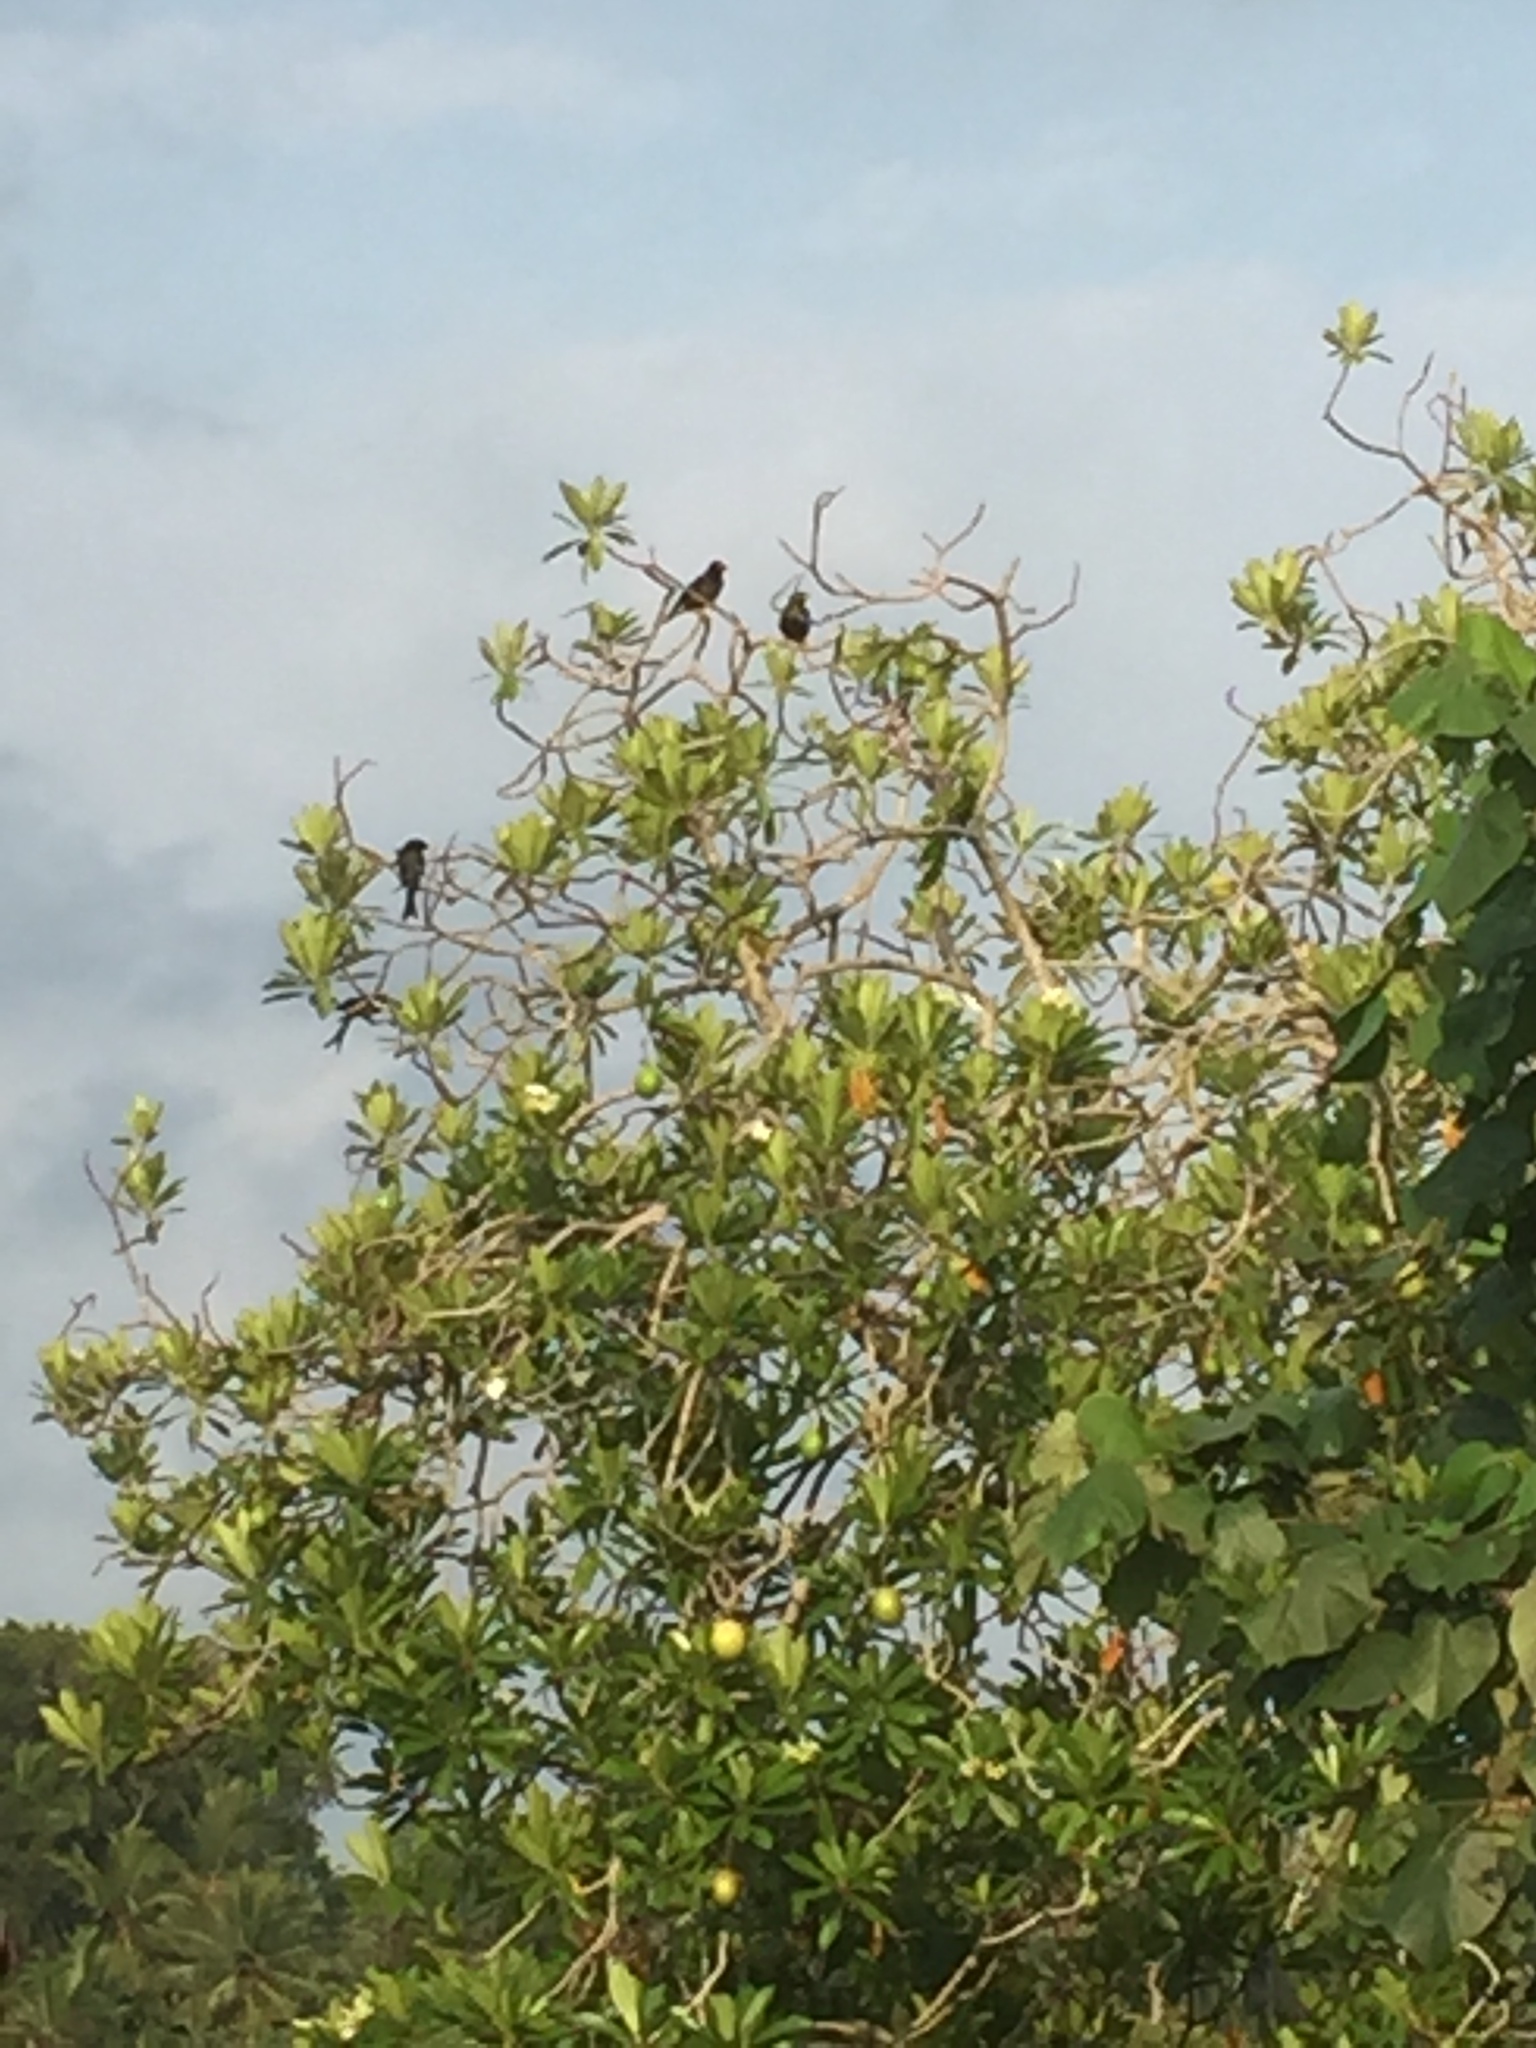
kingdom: Animalia
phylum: Chordata
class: Aves
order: Passeriformes
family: Sturnidae
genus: Acridotheres
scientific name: Acridotheres tristis
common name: Common myna
